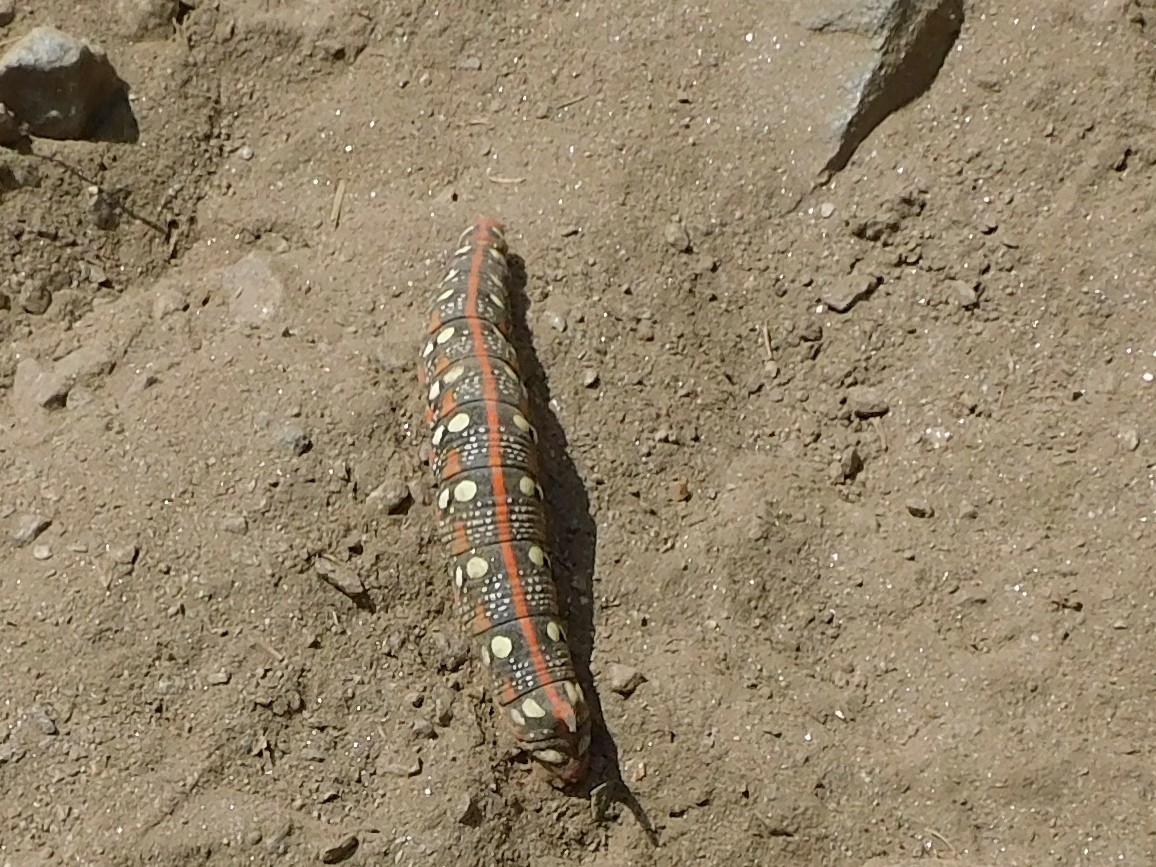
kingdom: Animalia
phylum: Arthropoda
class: Insecta
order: Lepidoptera
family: Sphingidae
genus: Hyles
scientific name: Hyles euphorbiae
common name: Spurge hawk-moth
